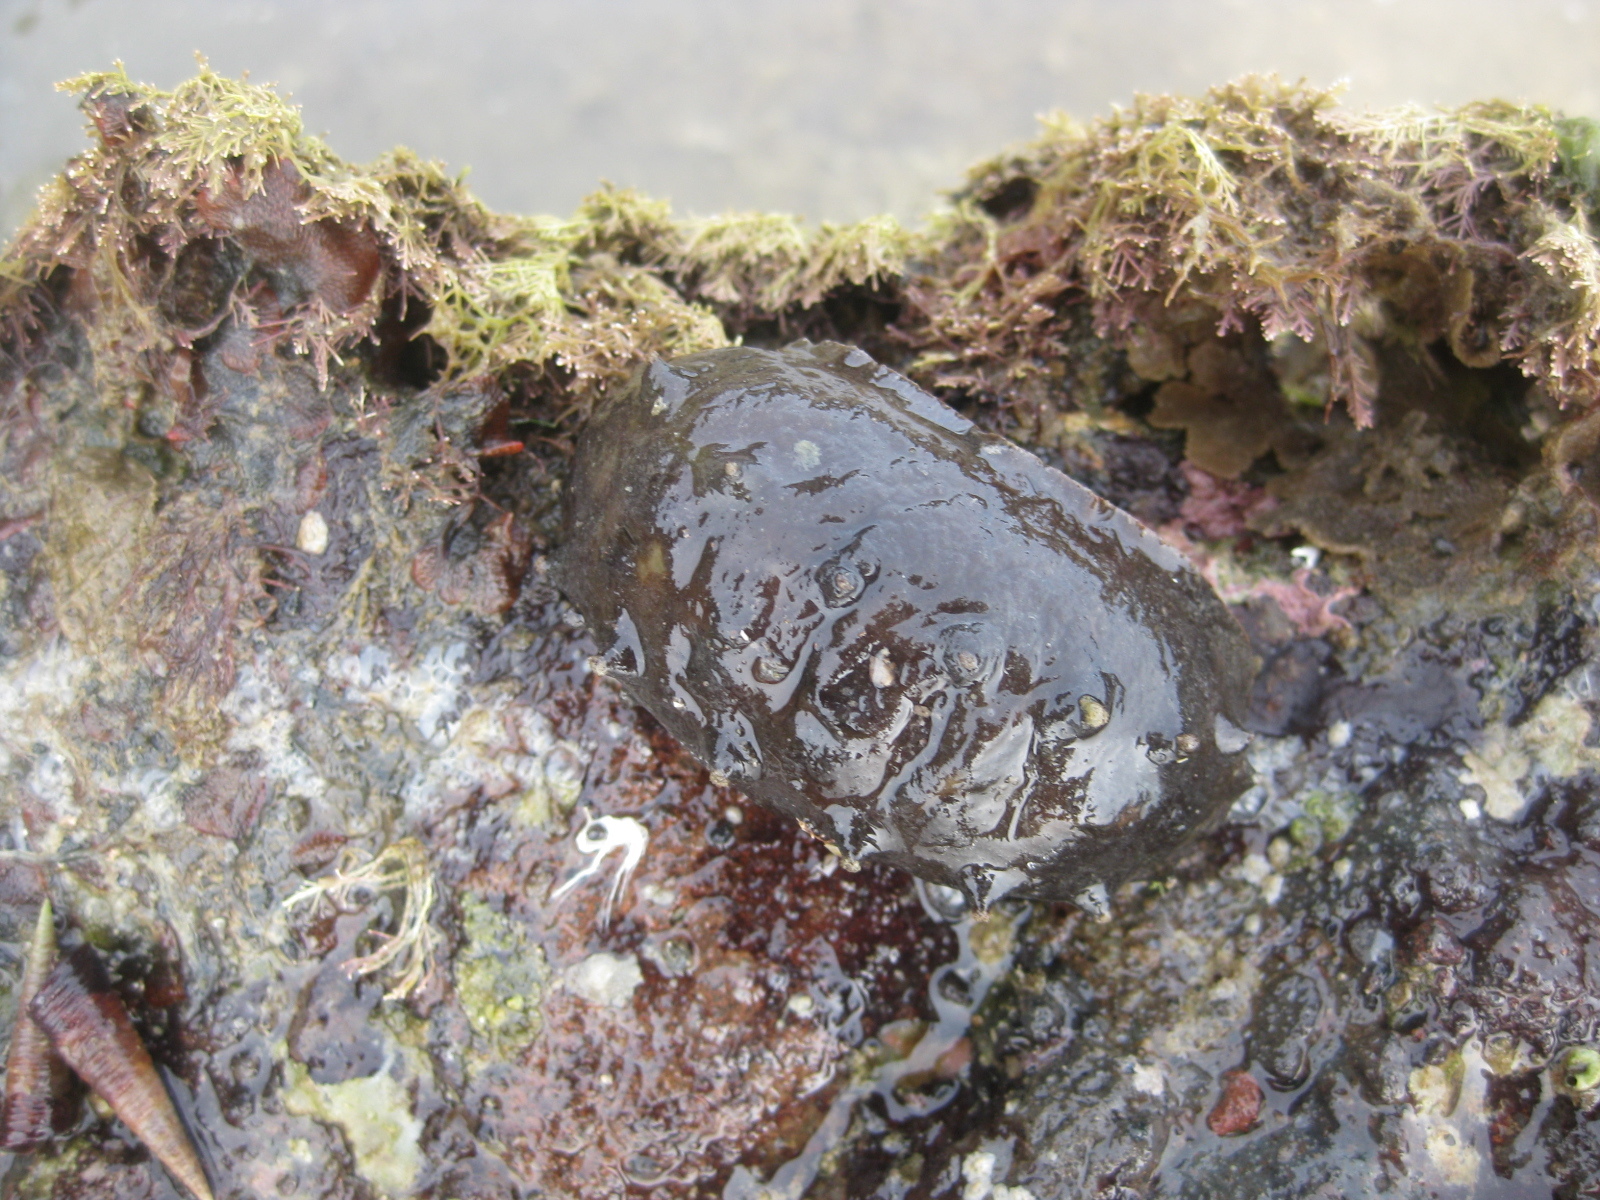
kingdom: Animalia
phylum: Mollusca
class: Polyplacophora
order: Chitonida
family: Acanthochitonidae
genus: Cryptoconchus
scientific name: Cryptoconchus porosus
